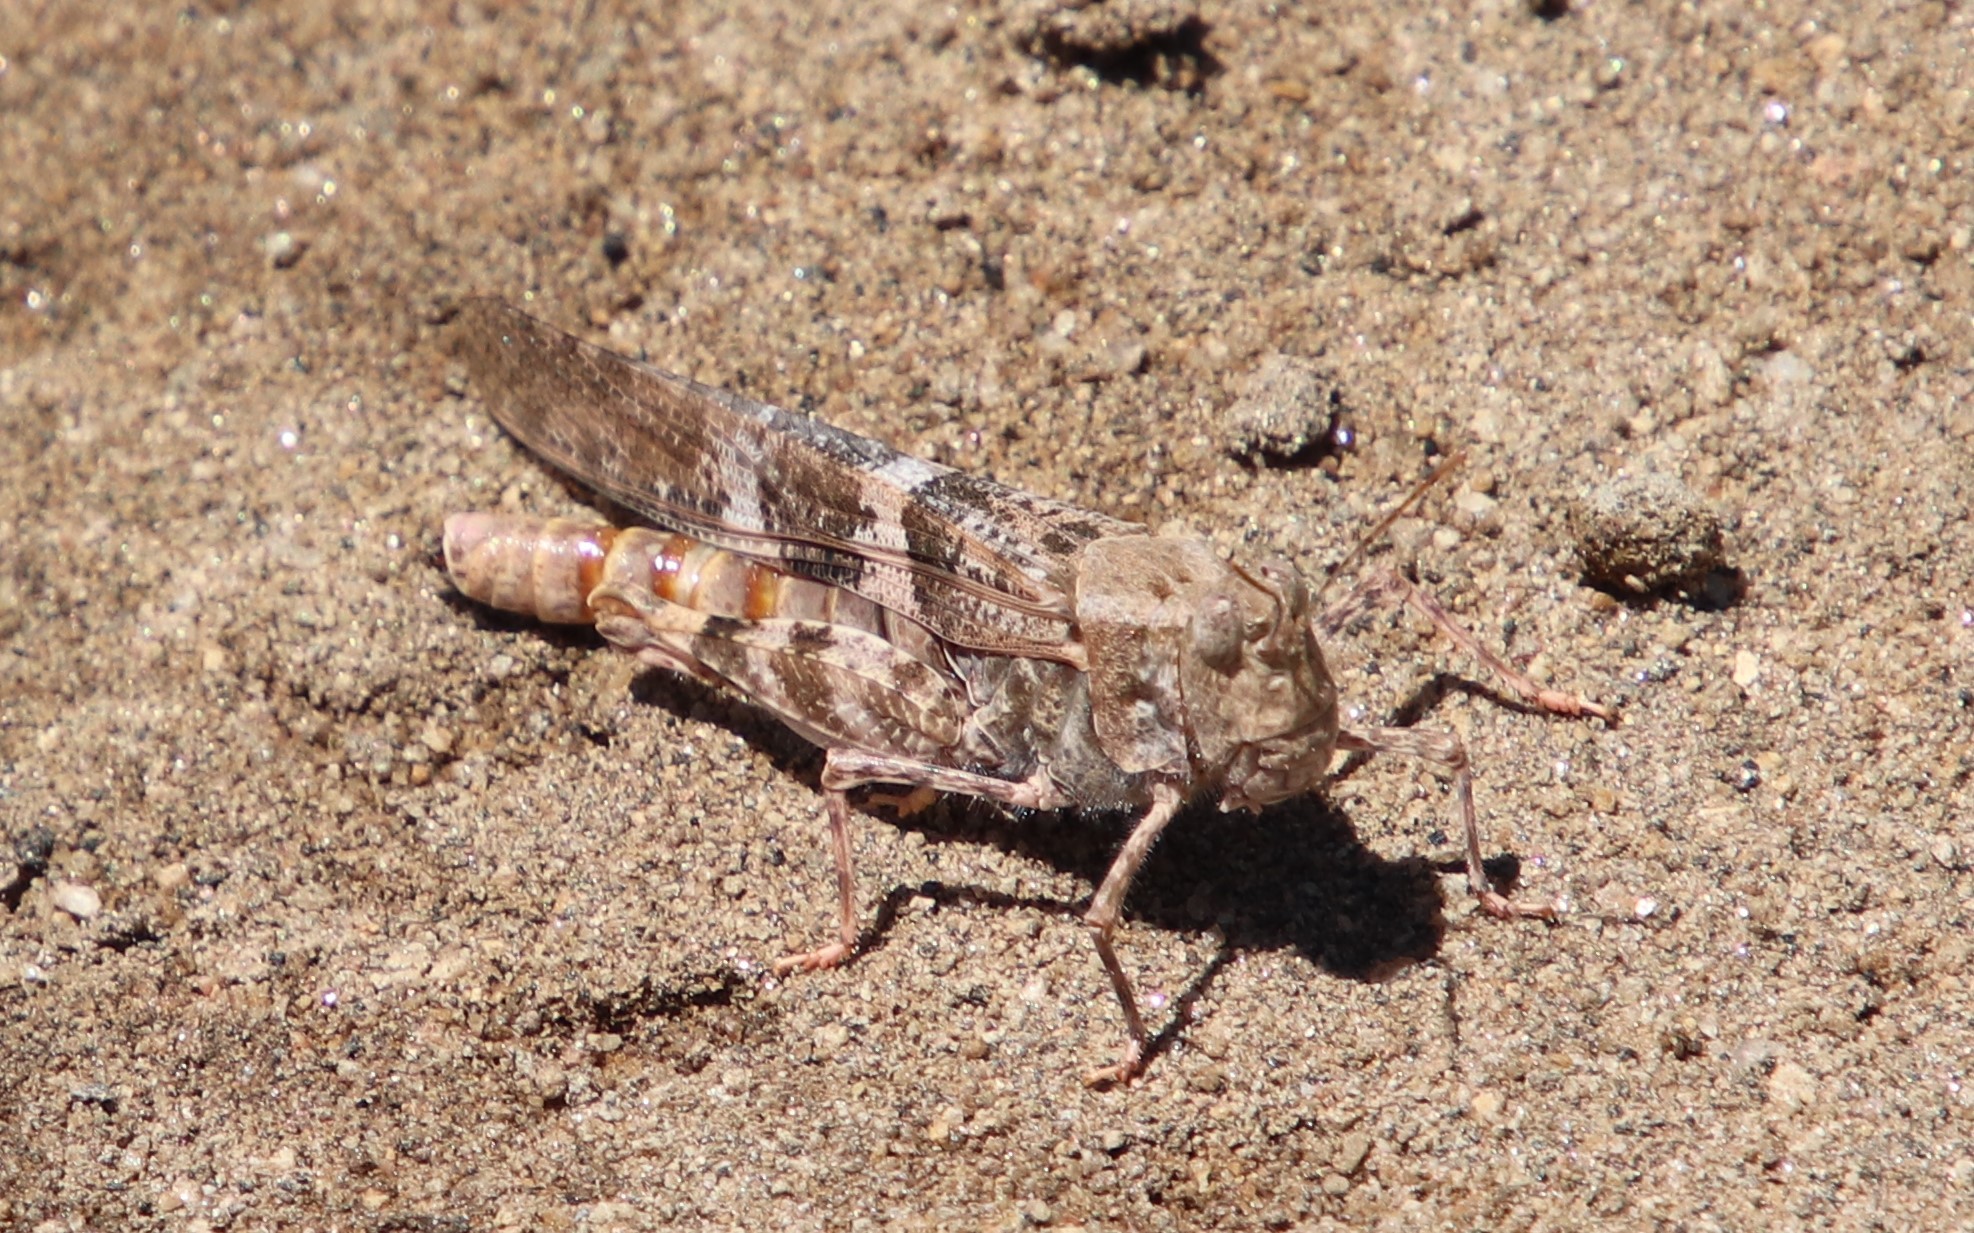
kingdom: Animalia
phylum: Arthropoda
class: Insecta
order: Orthoptera
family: Acrididae
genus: Trimerotropis
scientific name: Trimerotropis pallidipennis
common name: Pallid-winged grasshopper
